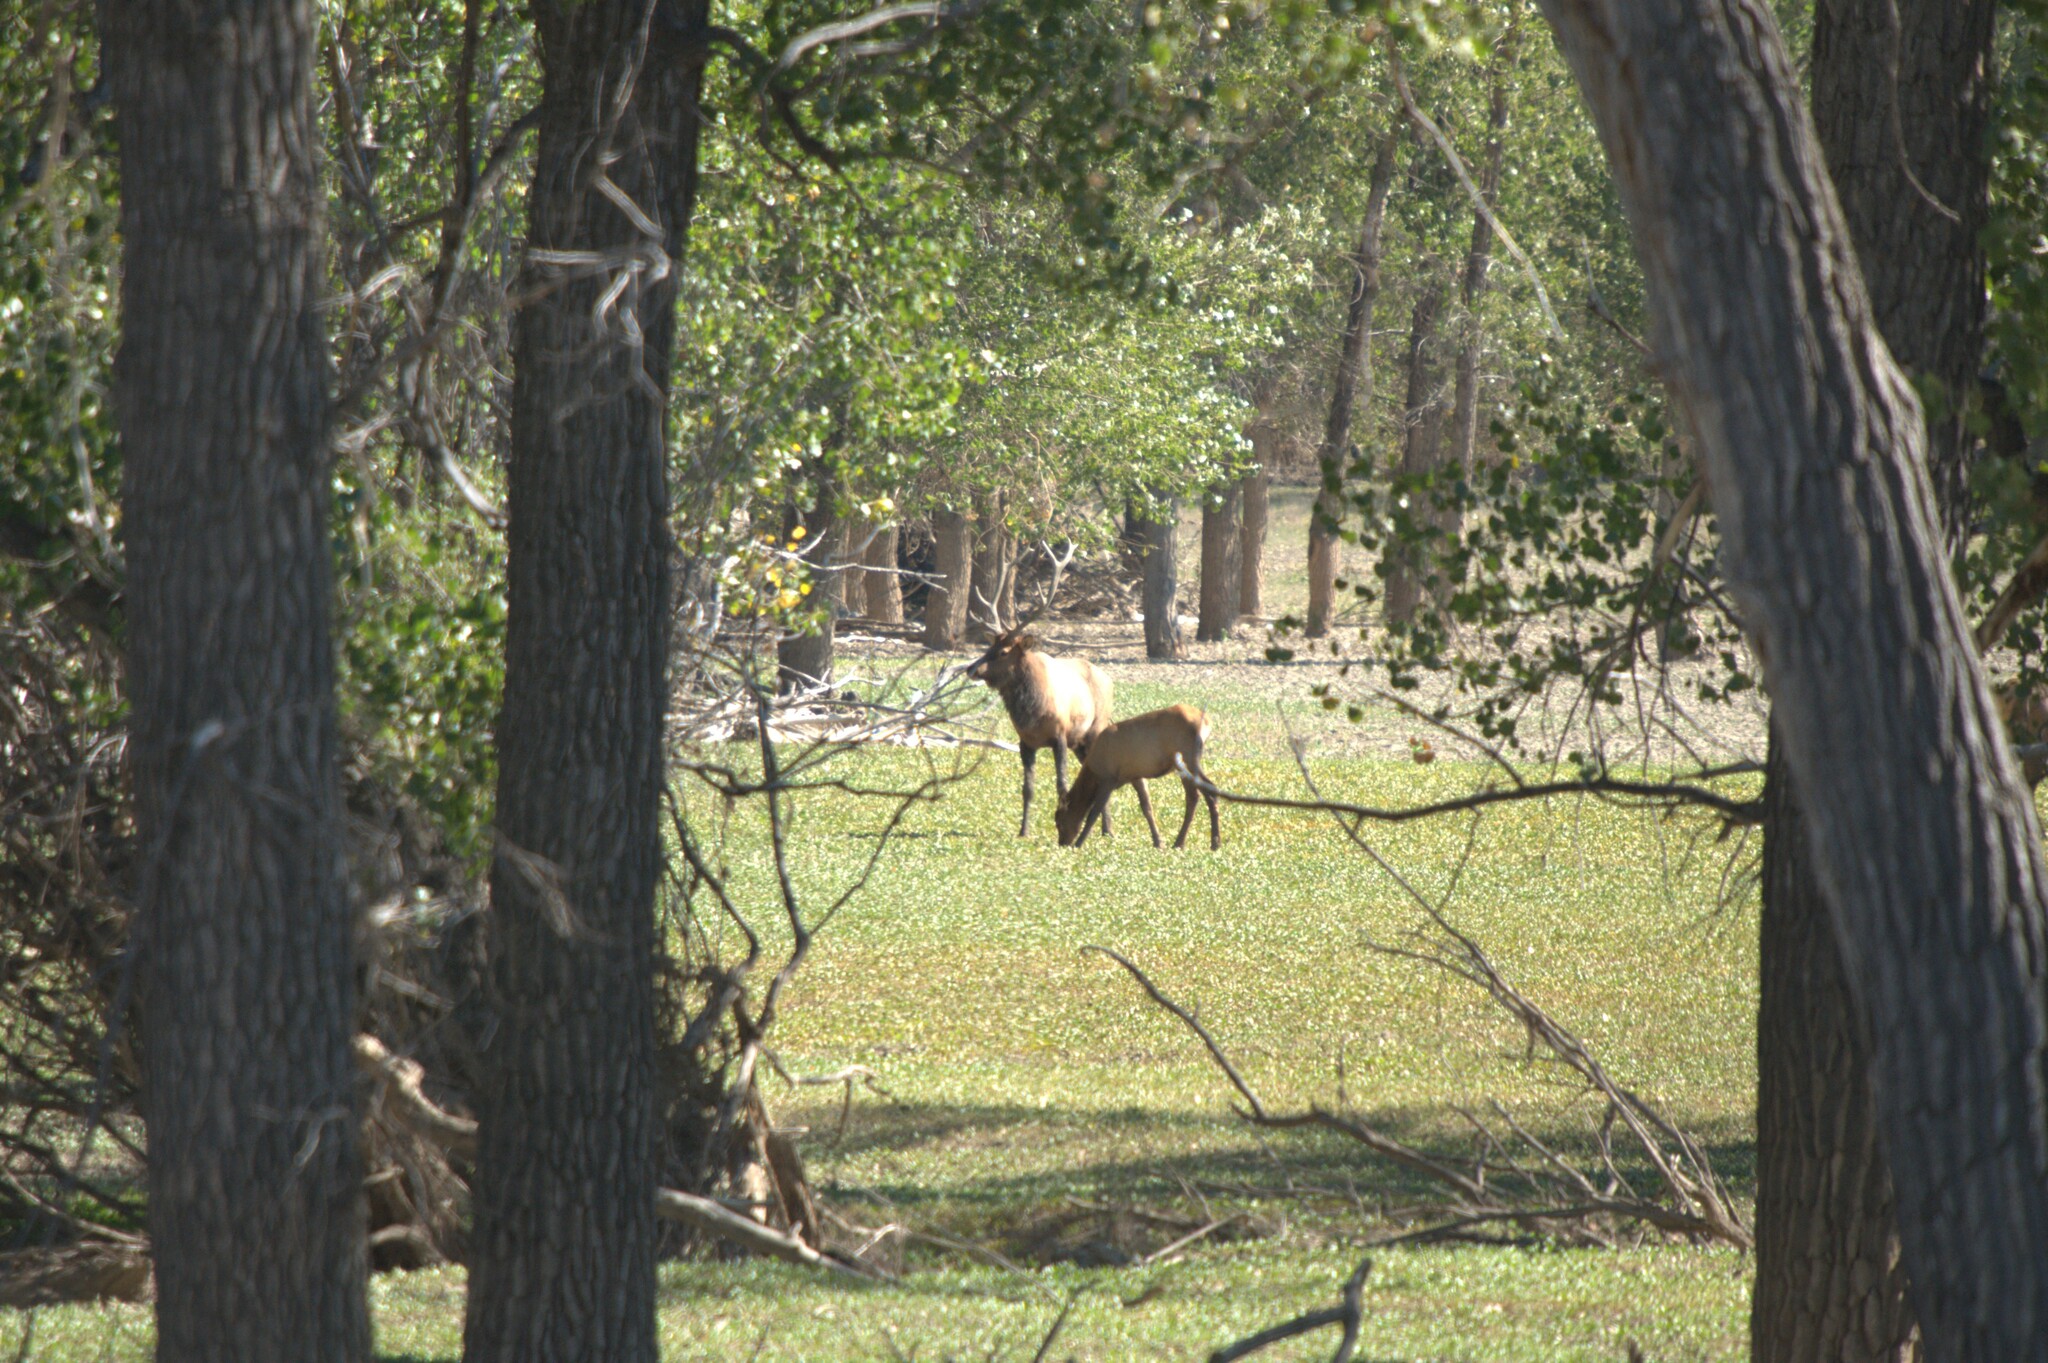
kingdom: Animalia
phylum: Chordata
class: Mammalia
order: Artiodactyla
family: Cervidae
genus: Cervus
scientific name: Cervus elaphus
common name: Red deer
